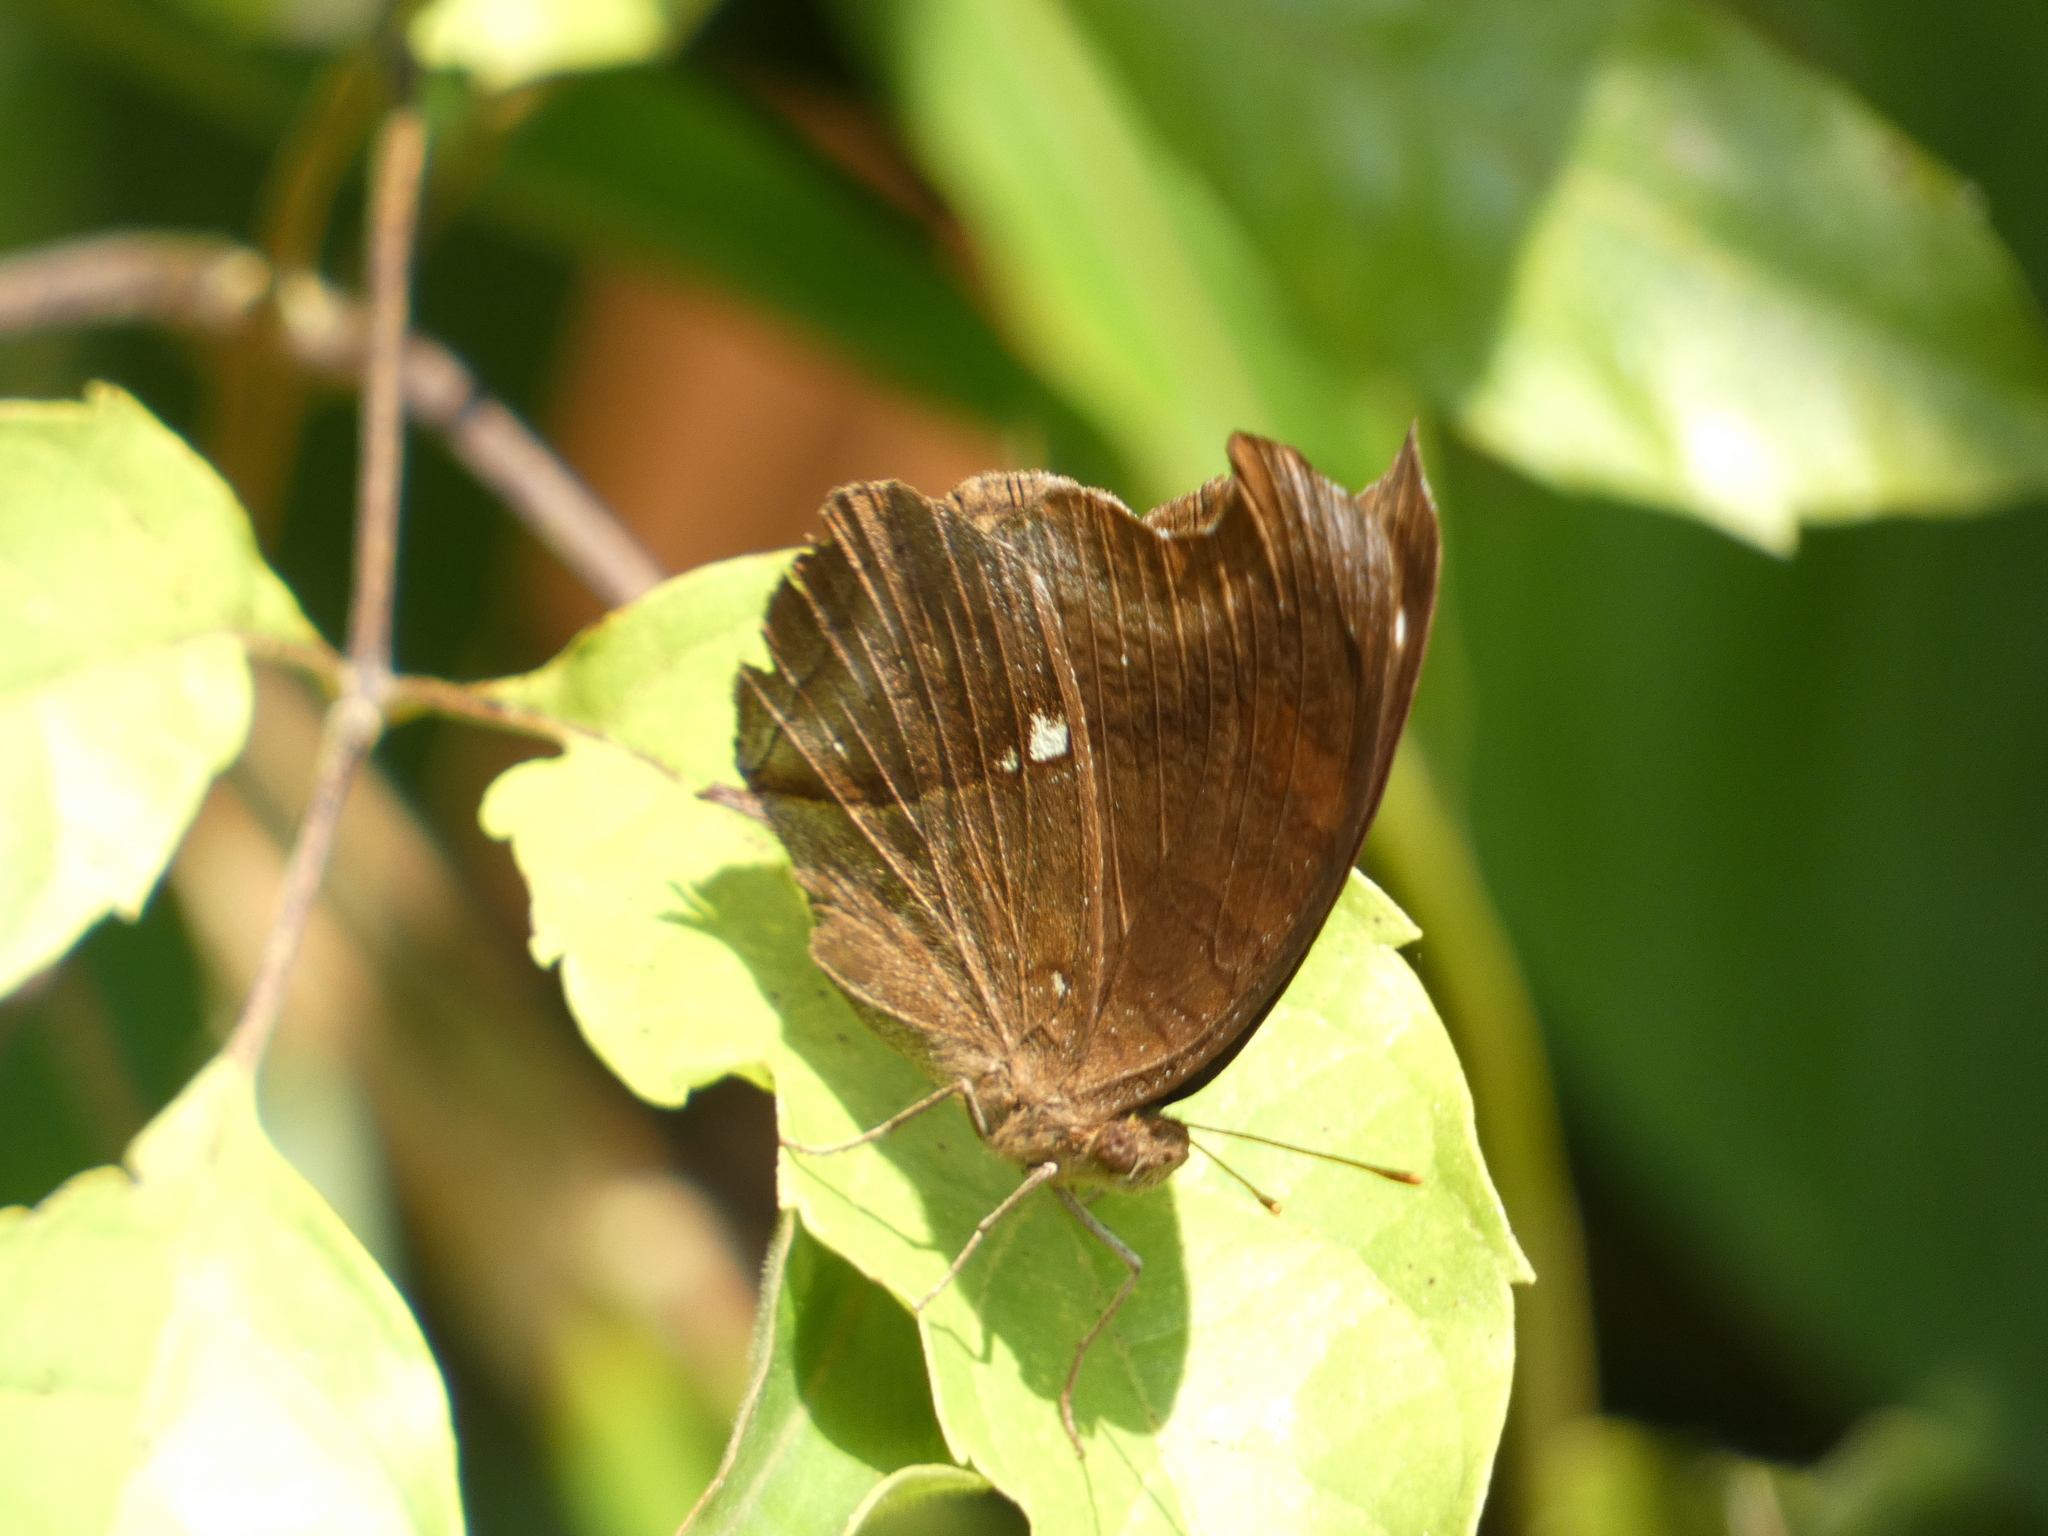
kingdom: Animalia
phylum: Arthropoda
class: Insecta
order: Lepidoptera
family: Nymphalidae
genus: Junonia
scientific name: Junonia iphita
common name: Chocolate pansy
